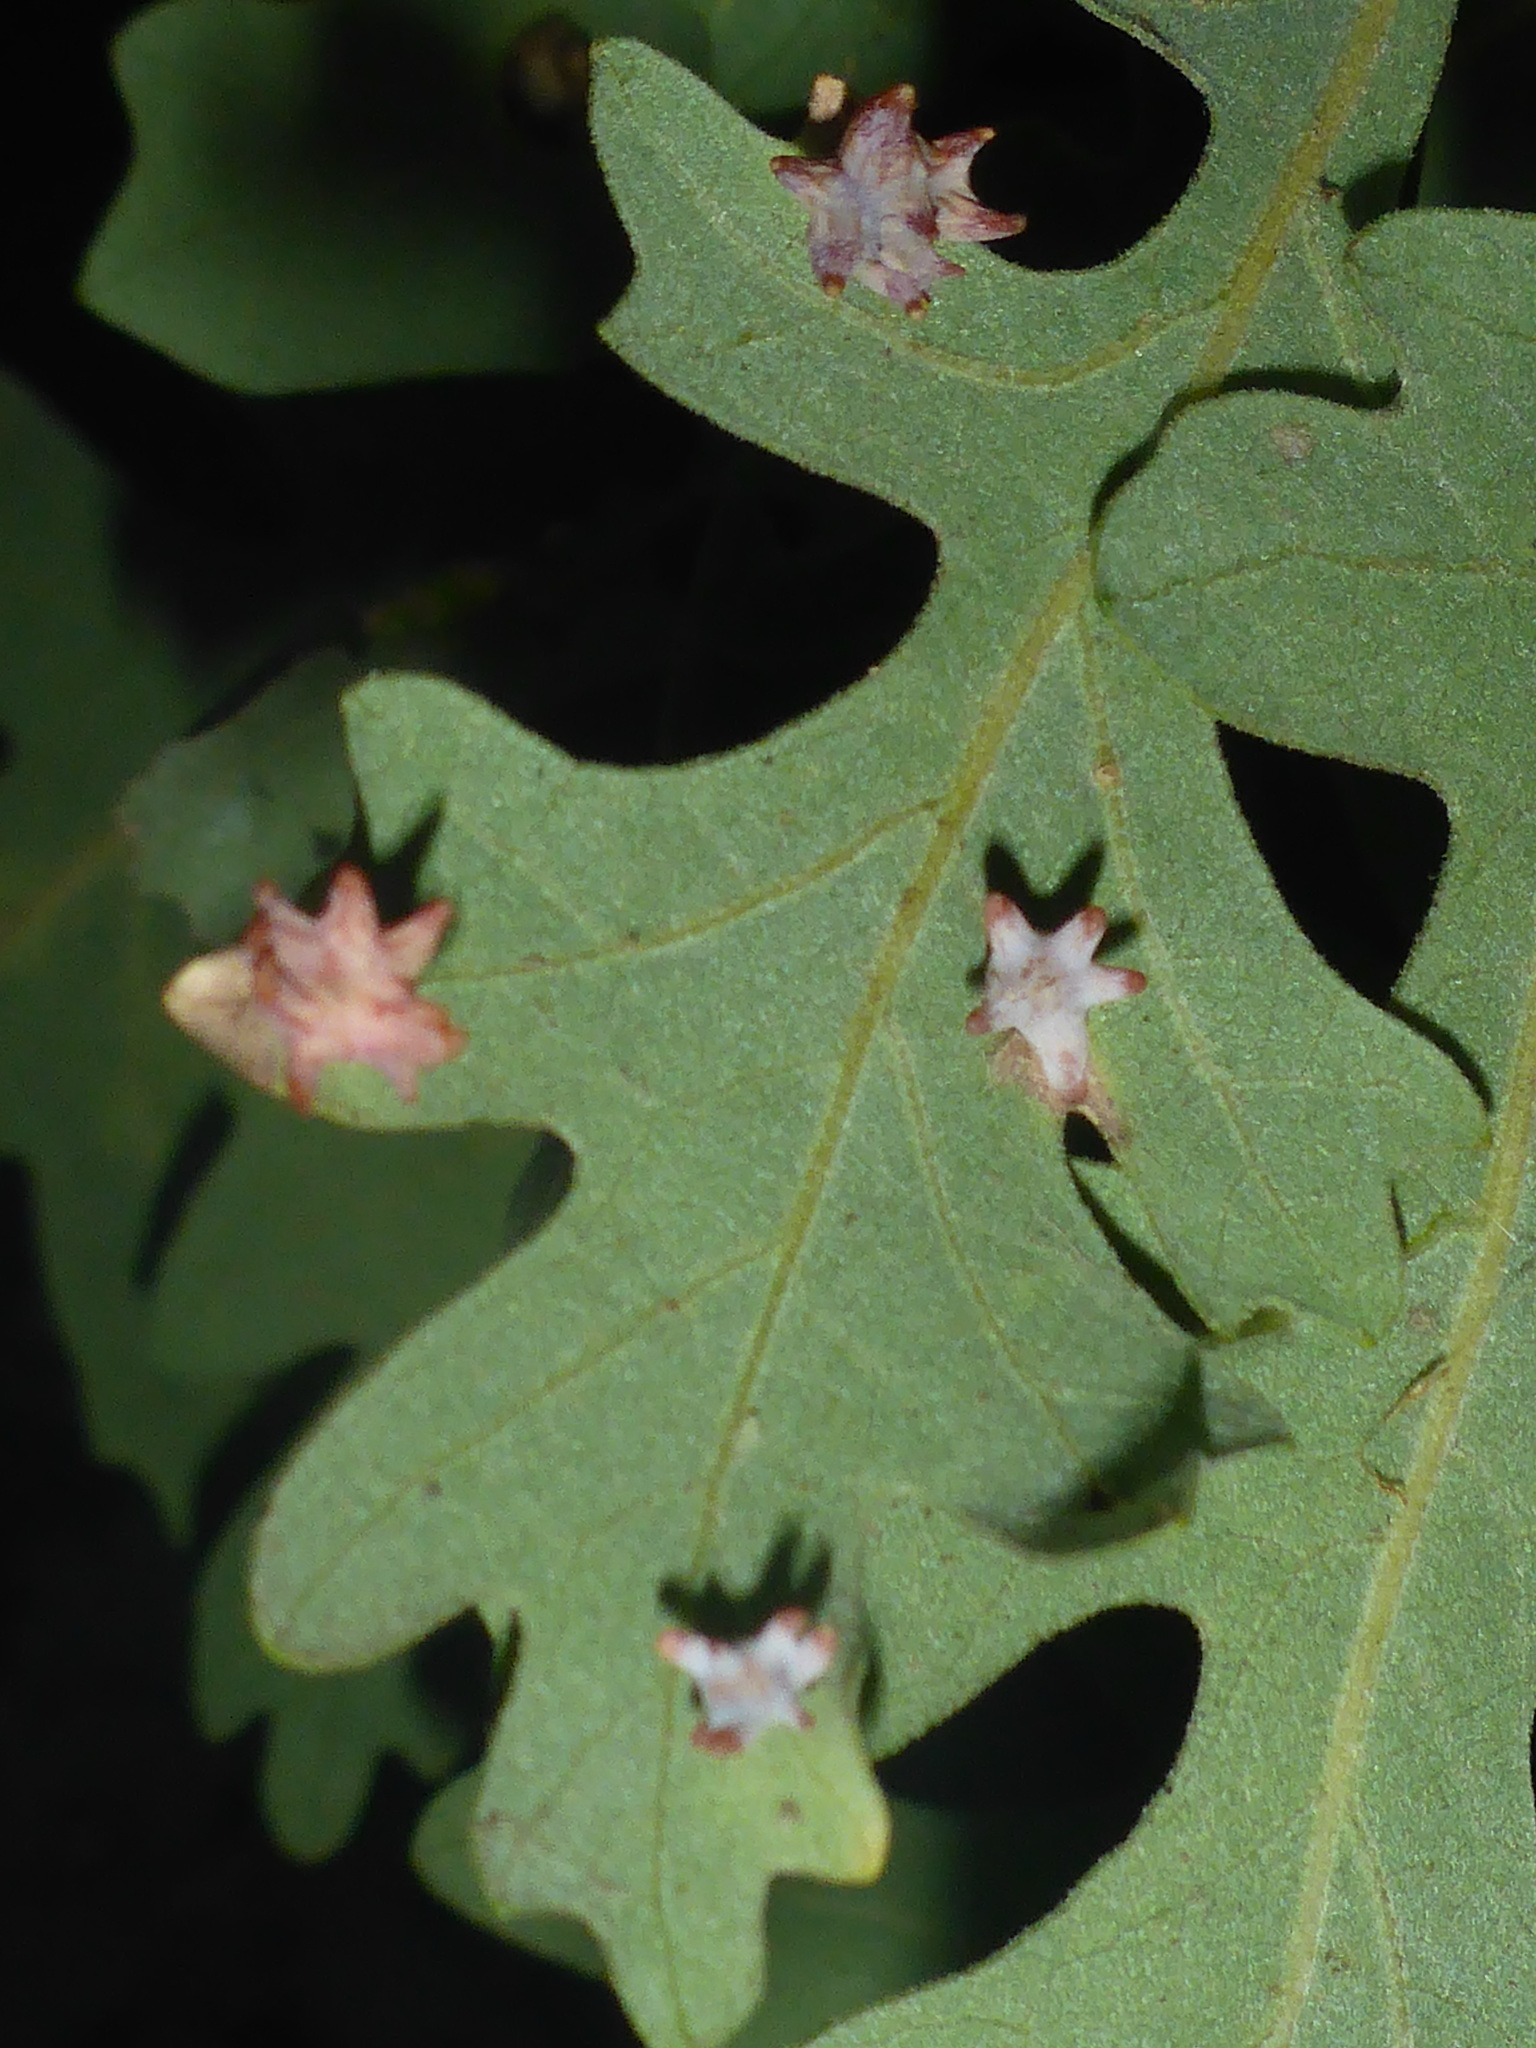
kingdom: Animalia
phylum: Arthropoda
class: Insecta
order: Hymenoptera
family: Cynipidae
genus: Cynips
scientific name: Cynips douglasi
